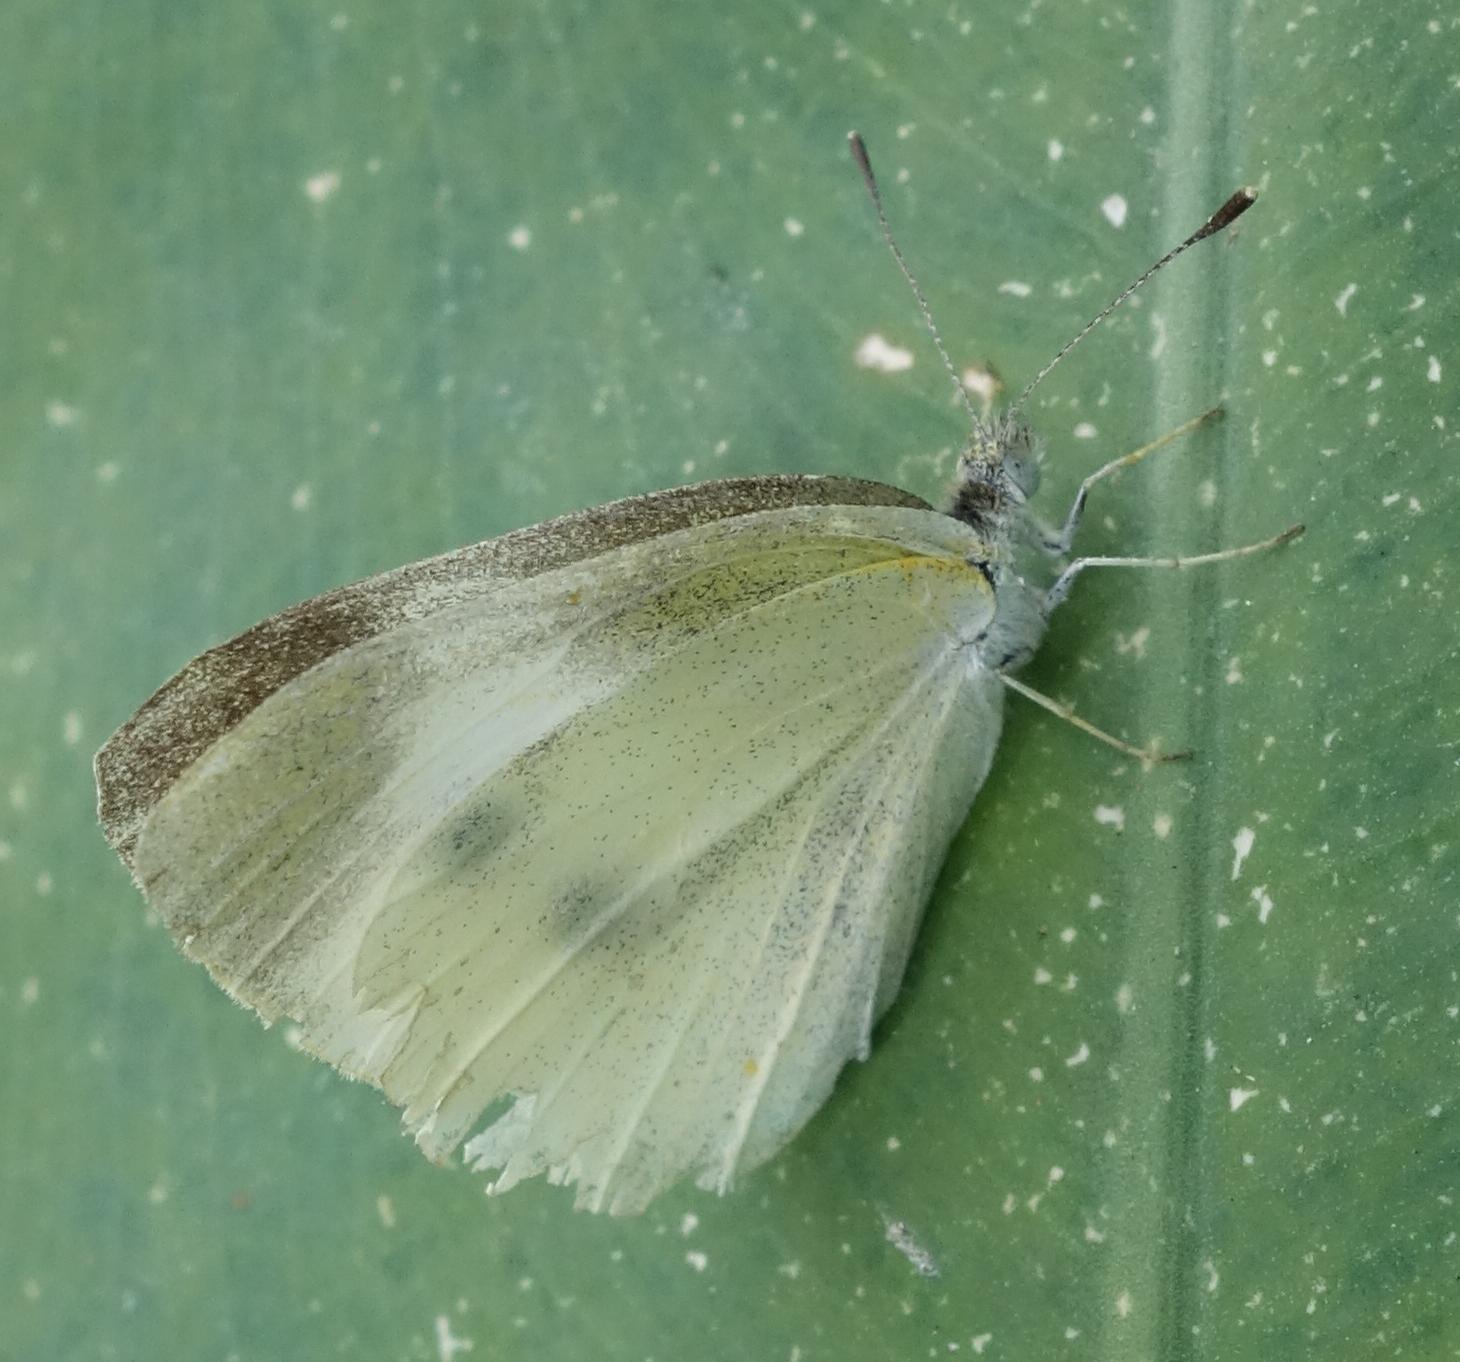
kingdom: Animalia
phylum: Arthropoda
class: Insecta
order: Lepidoptera
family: Pieridae
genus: Pieris
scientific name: Pieris rapae
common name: Small white
